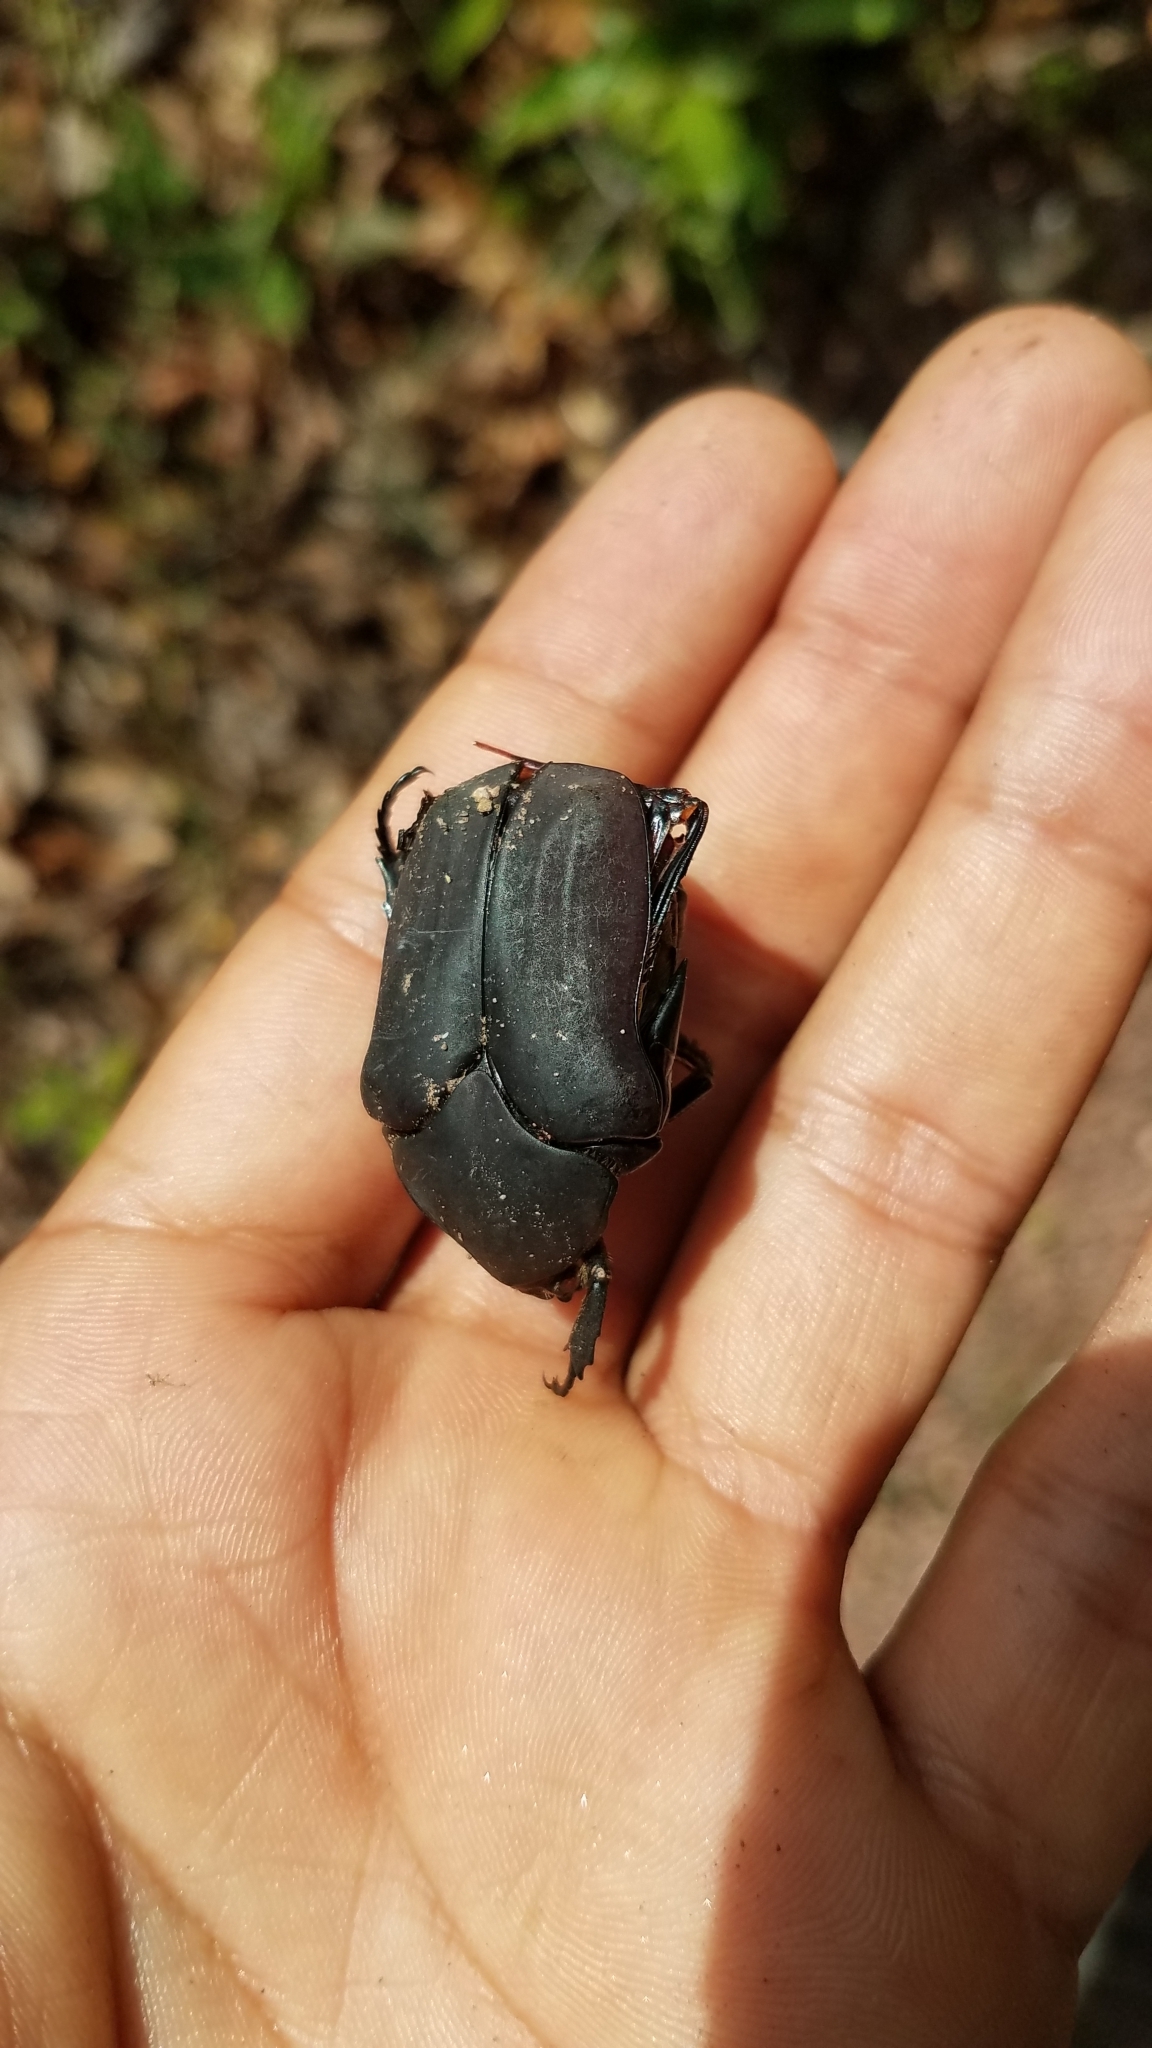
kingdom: Animalia
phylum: Arthropoda
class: Insecta
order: Coleoptera
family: Scarabaeidae
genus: Cotinis
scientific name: Cotinis mutabilis
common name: Figeater beetle
